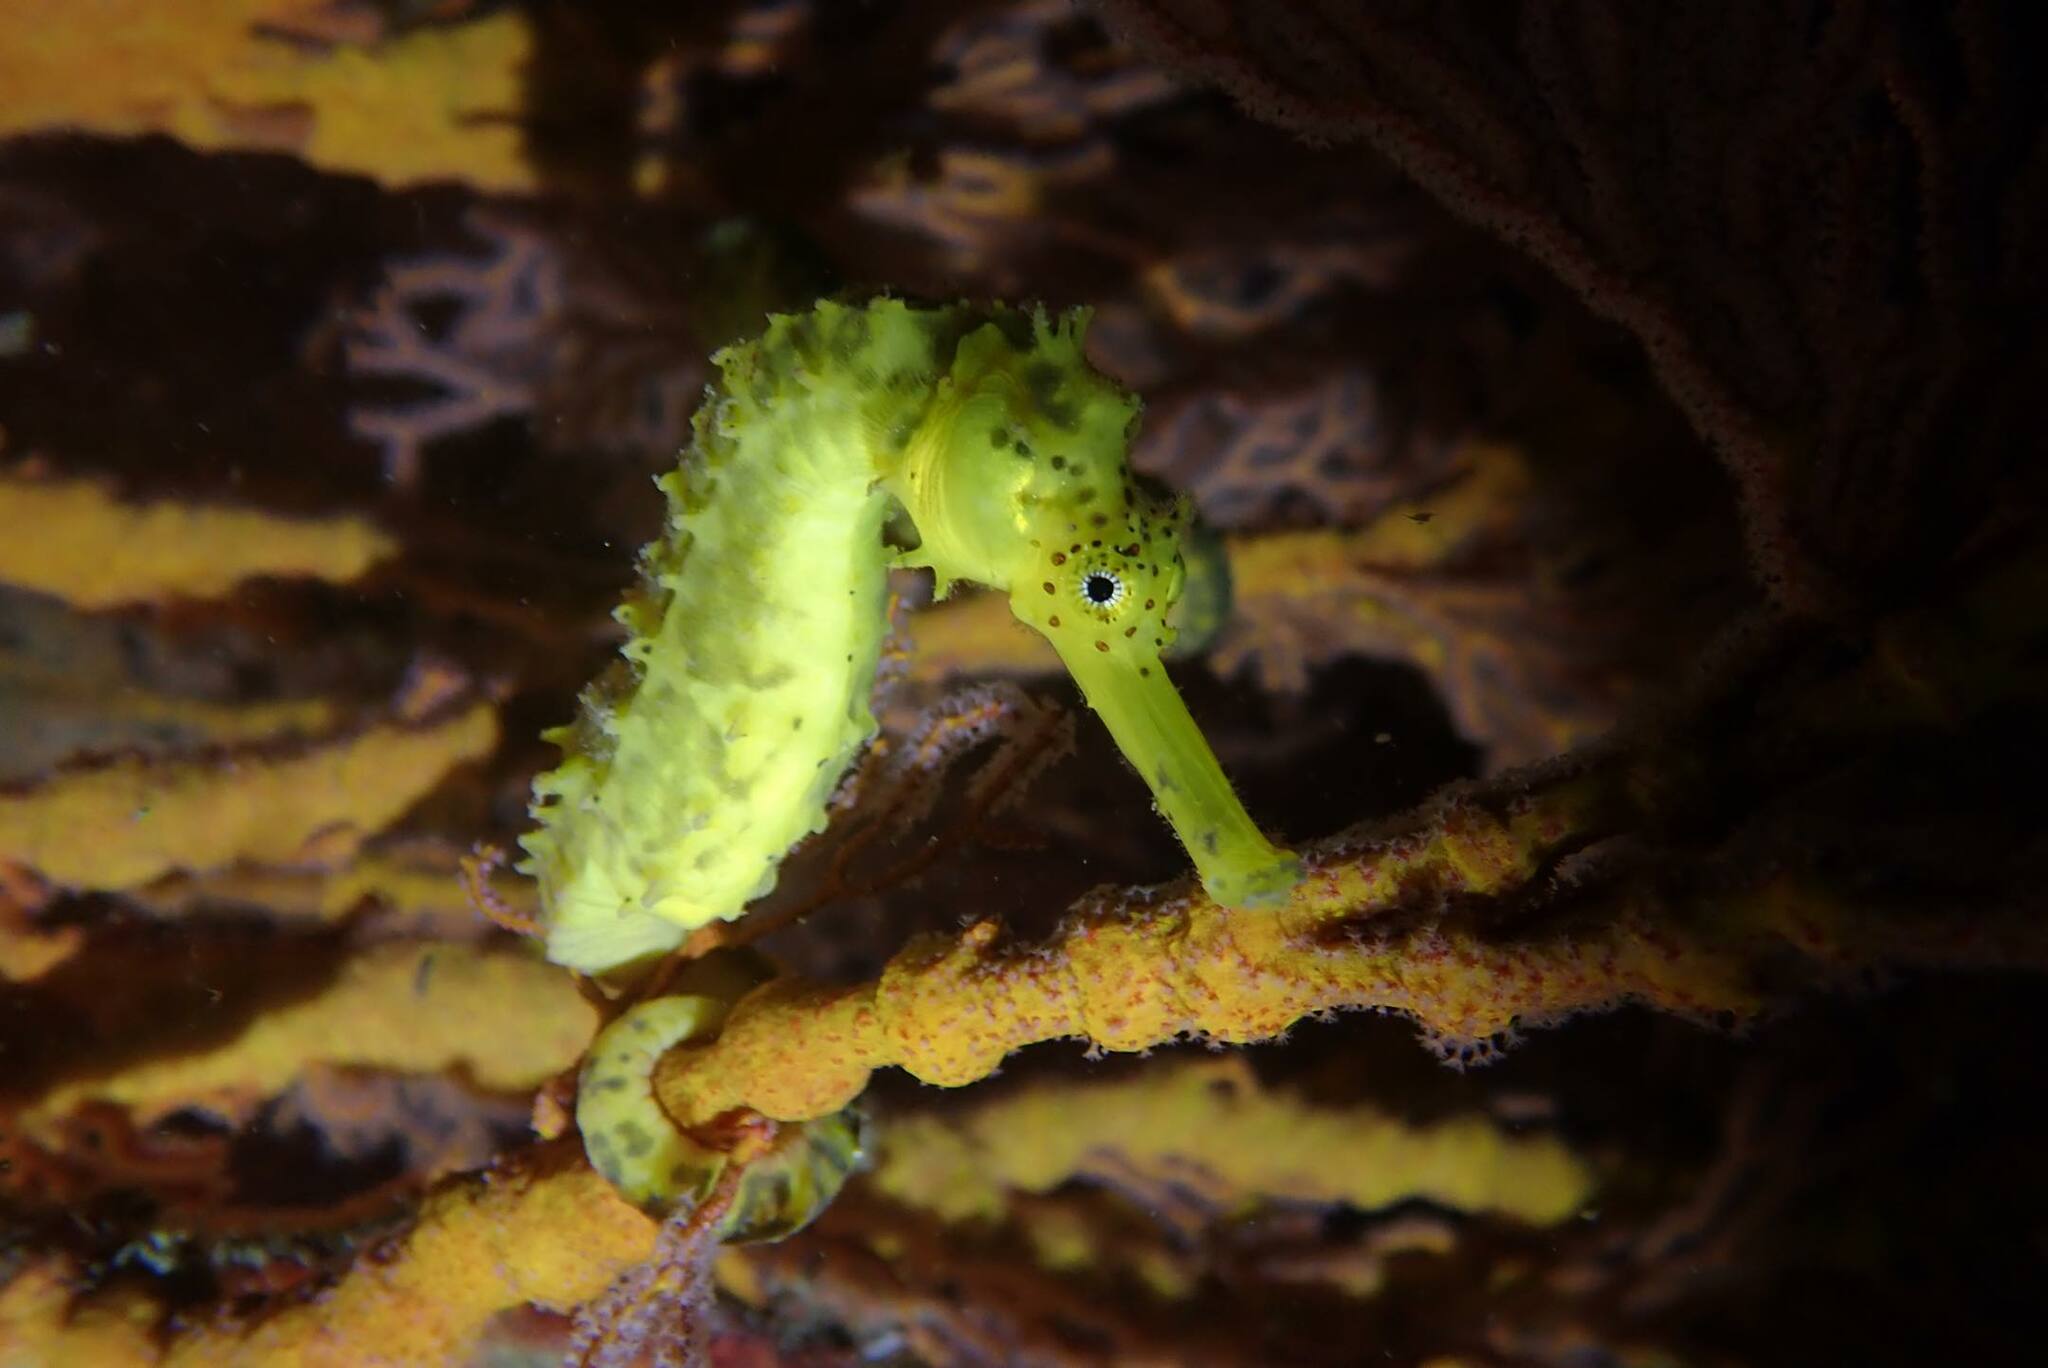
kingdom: Animalia
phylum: Chordata
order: Syngnathiformes
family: Syngnathidae
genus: Hippocampus
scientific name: Hippocampus comes
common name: Tiger tail seahorse
